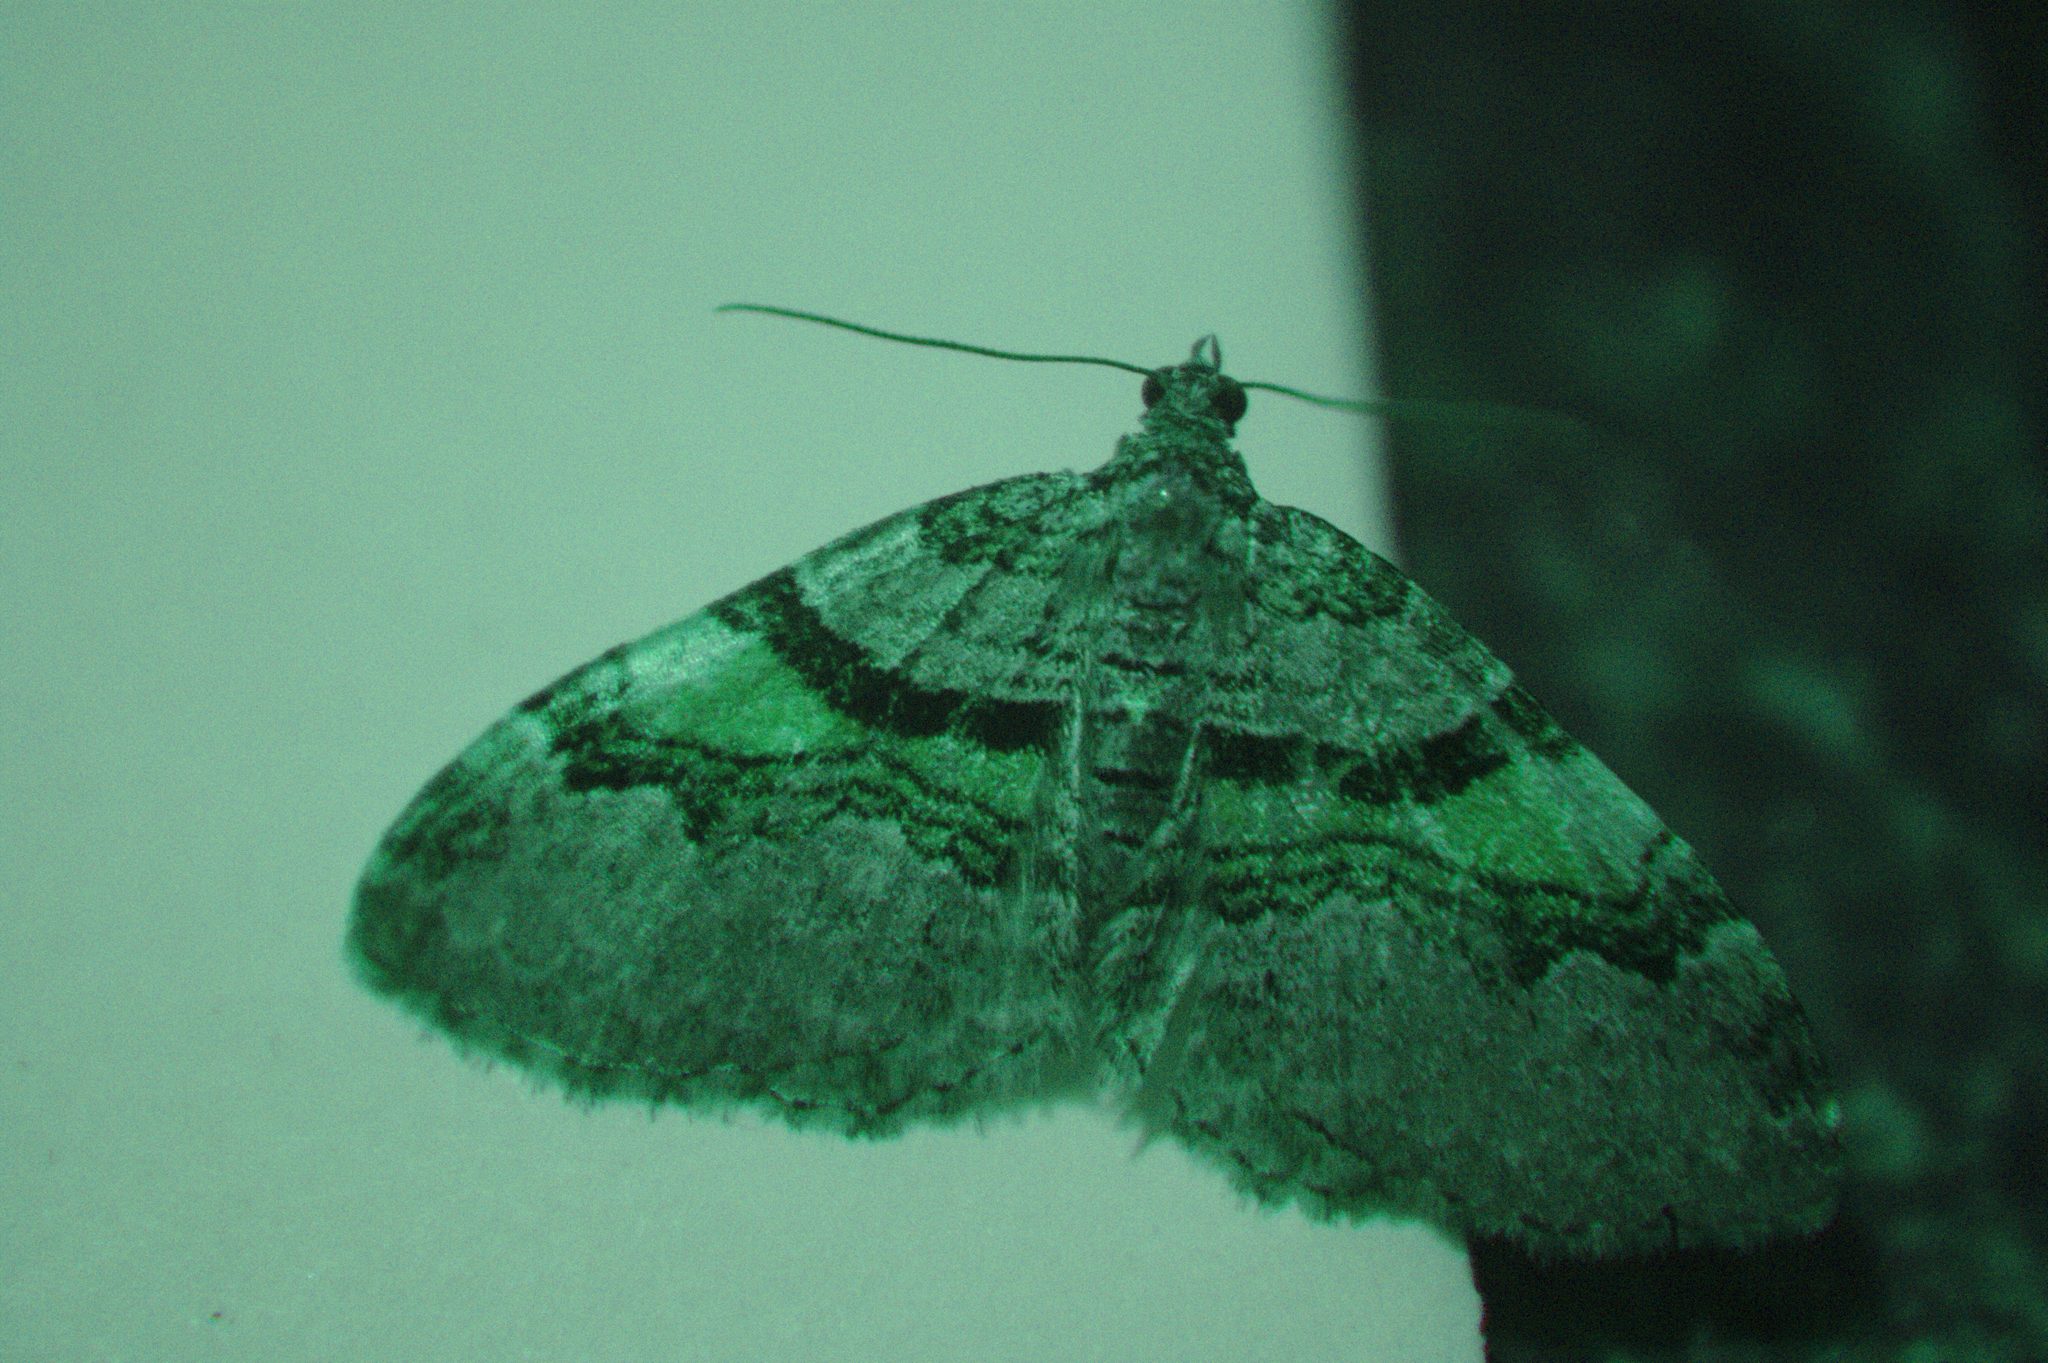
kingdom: Animalia
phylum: Arthropoda
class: Insecta
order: Lepidoptera
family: Geometridae
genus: Xanthorhoe
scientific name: Xanthorhoe labradorensis
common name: Labrador carpet
